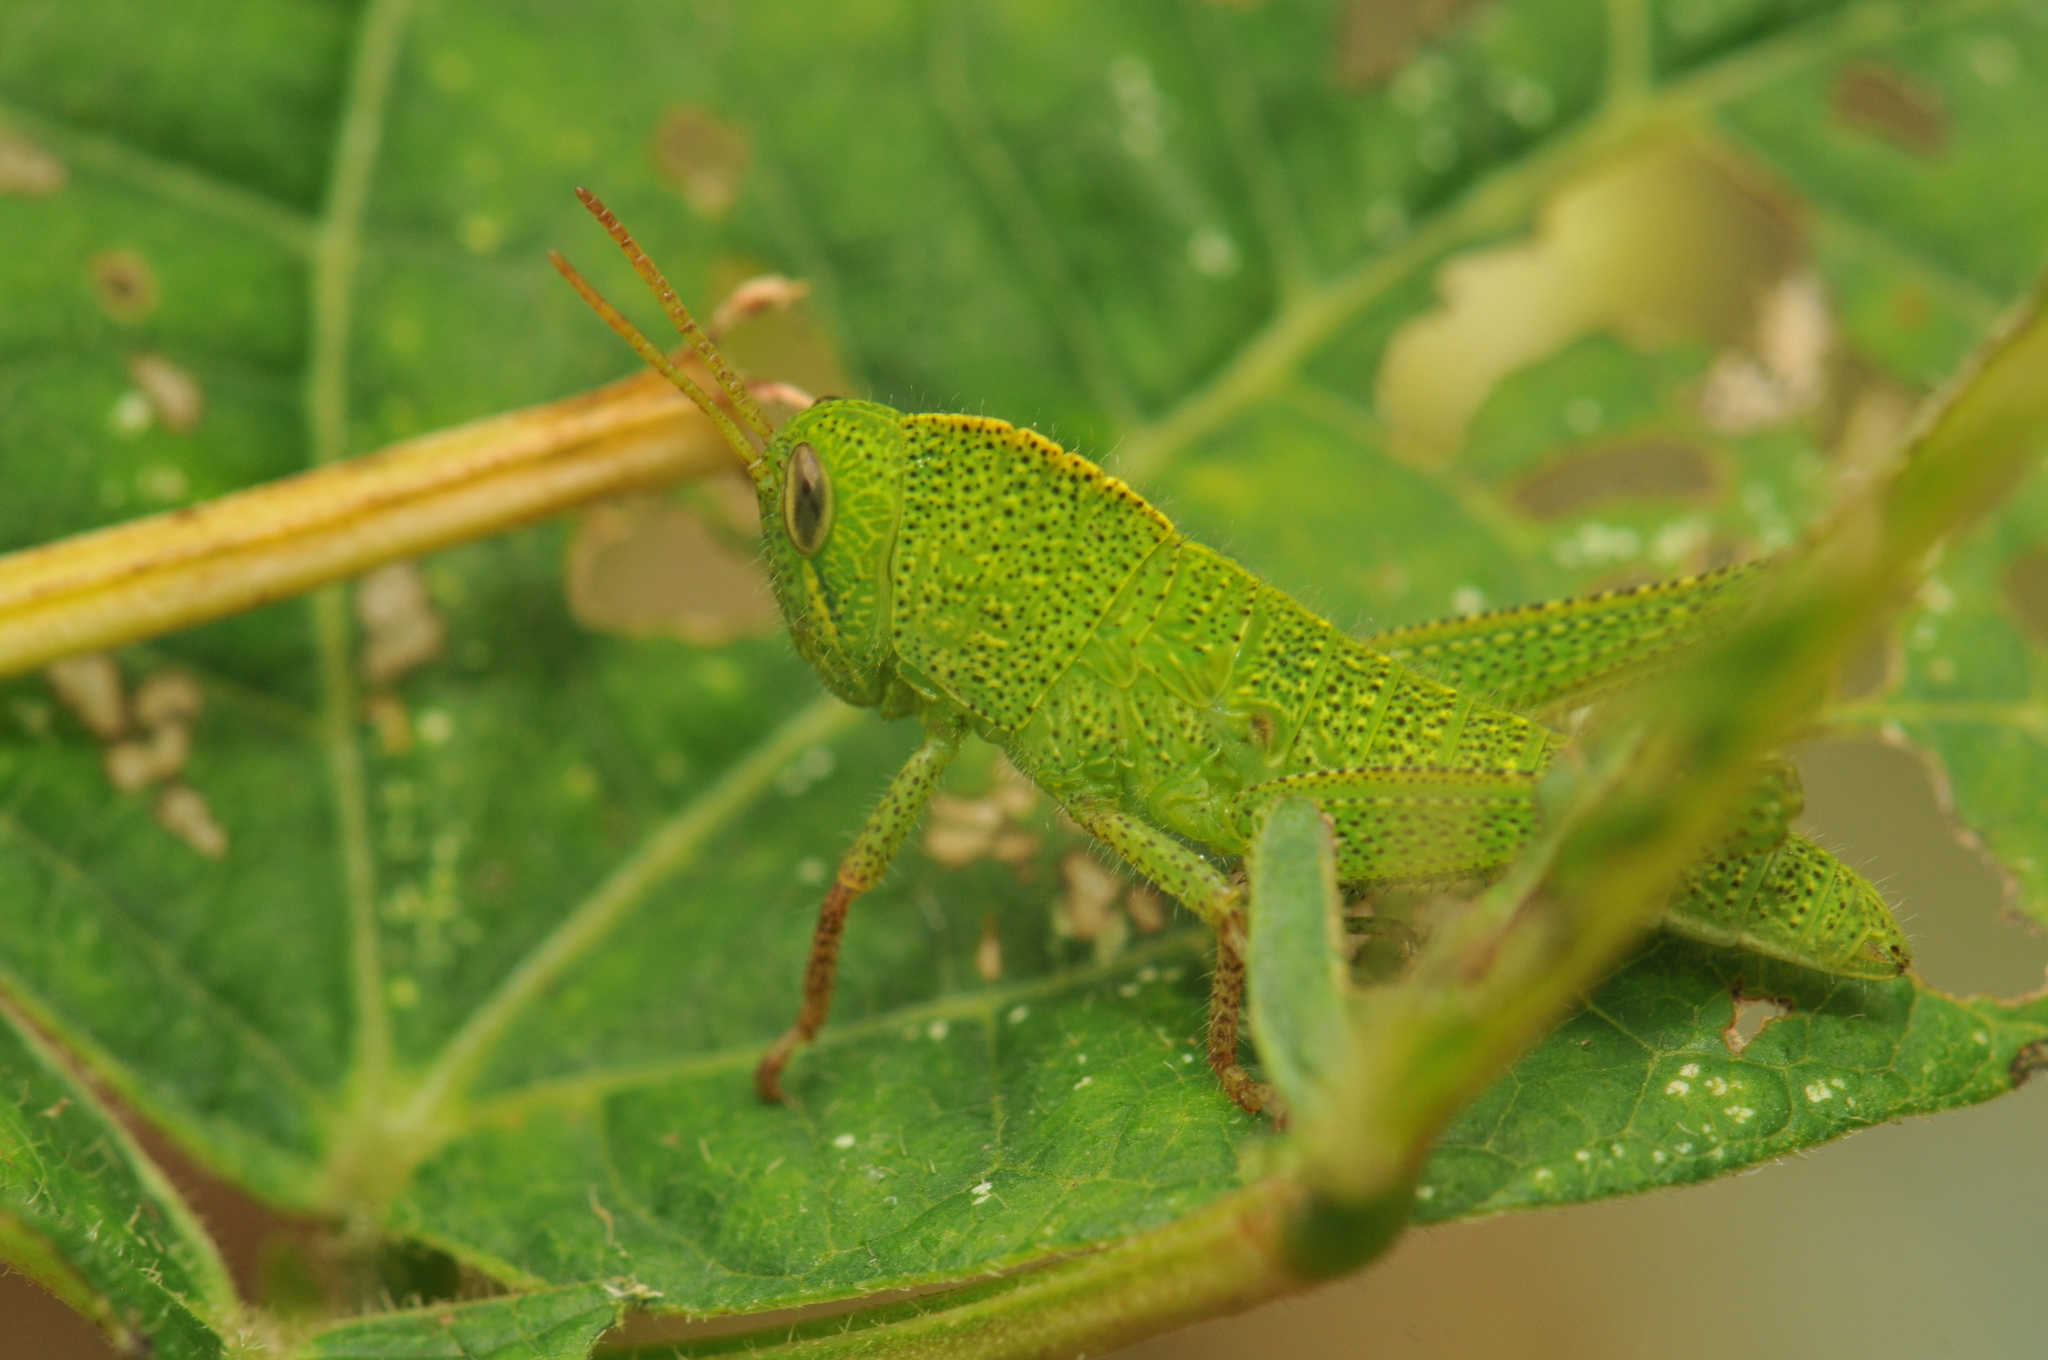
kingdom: Animalia
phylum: Arthropoda
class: Insecta
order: Orthoptera
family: Acrididae
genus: Chondracris
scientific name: Chondracris rosea
